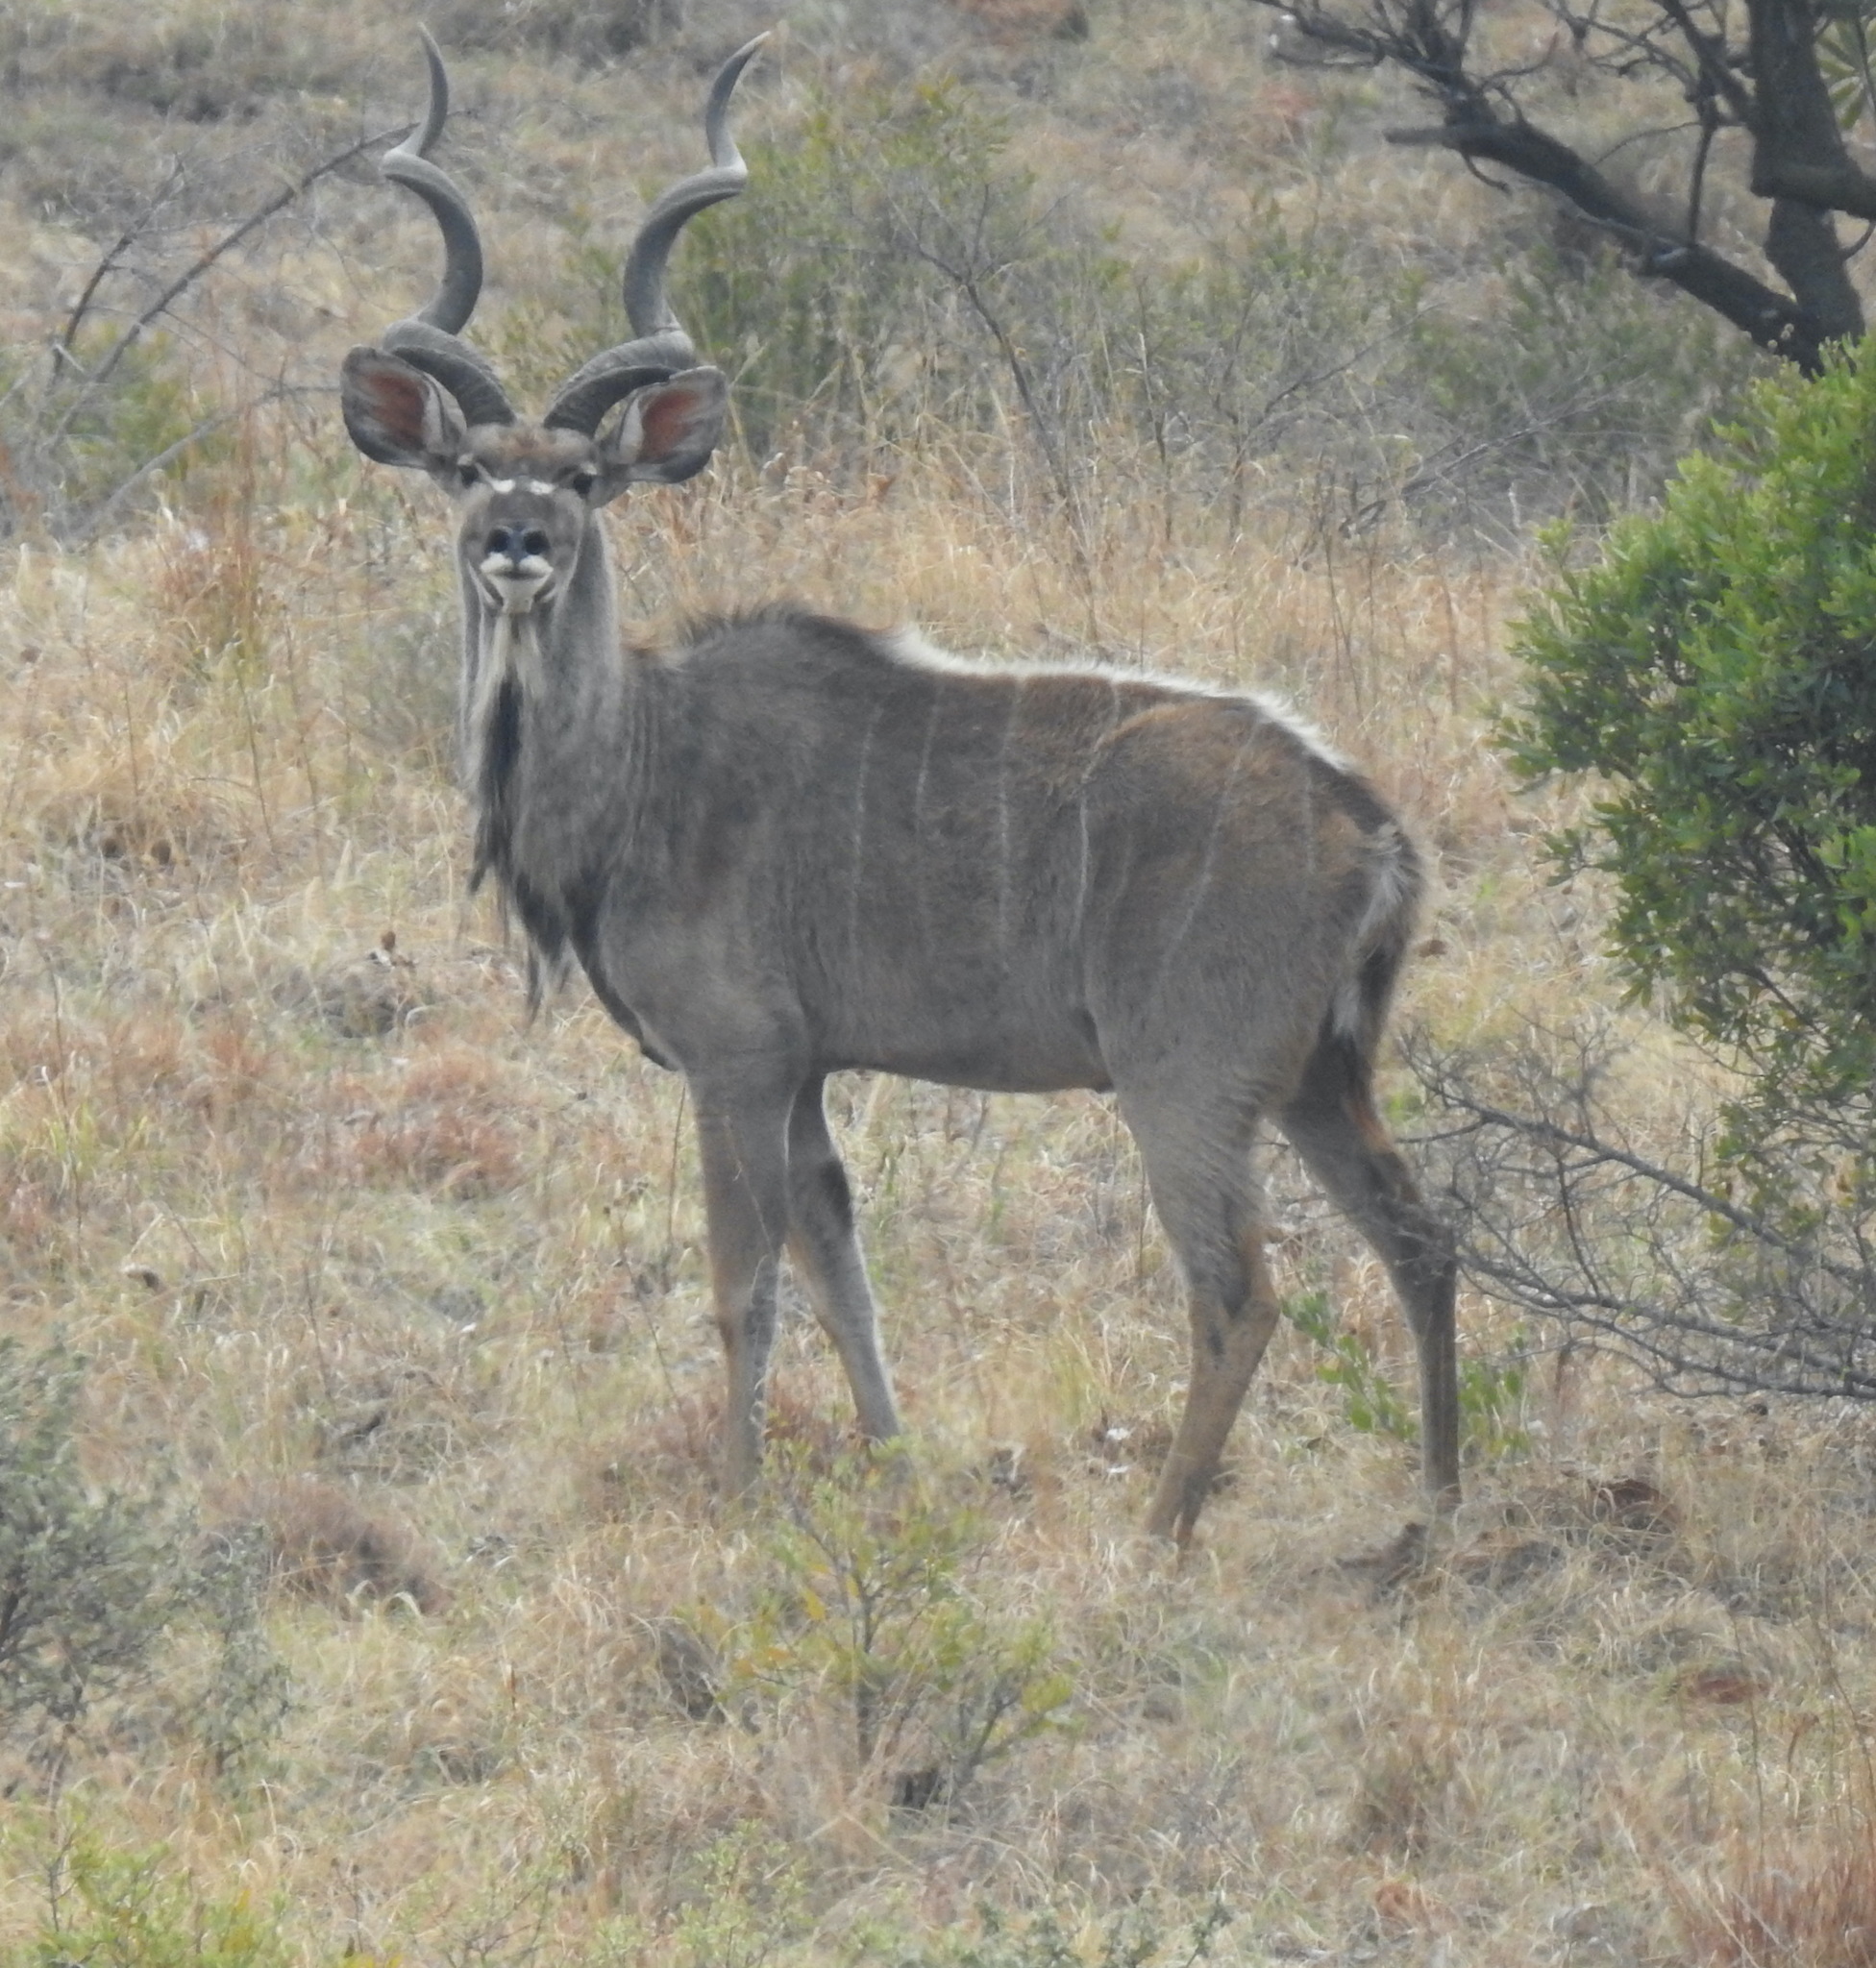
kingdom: Animalia
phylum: Chordata
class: Mammalia
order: Artiodactyla
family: Bovidae
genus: Tragelaphus
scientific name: Tragelaphus strepsiceros
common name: Greater kudu
